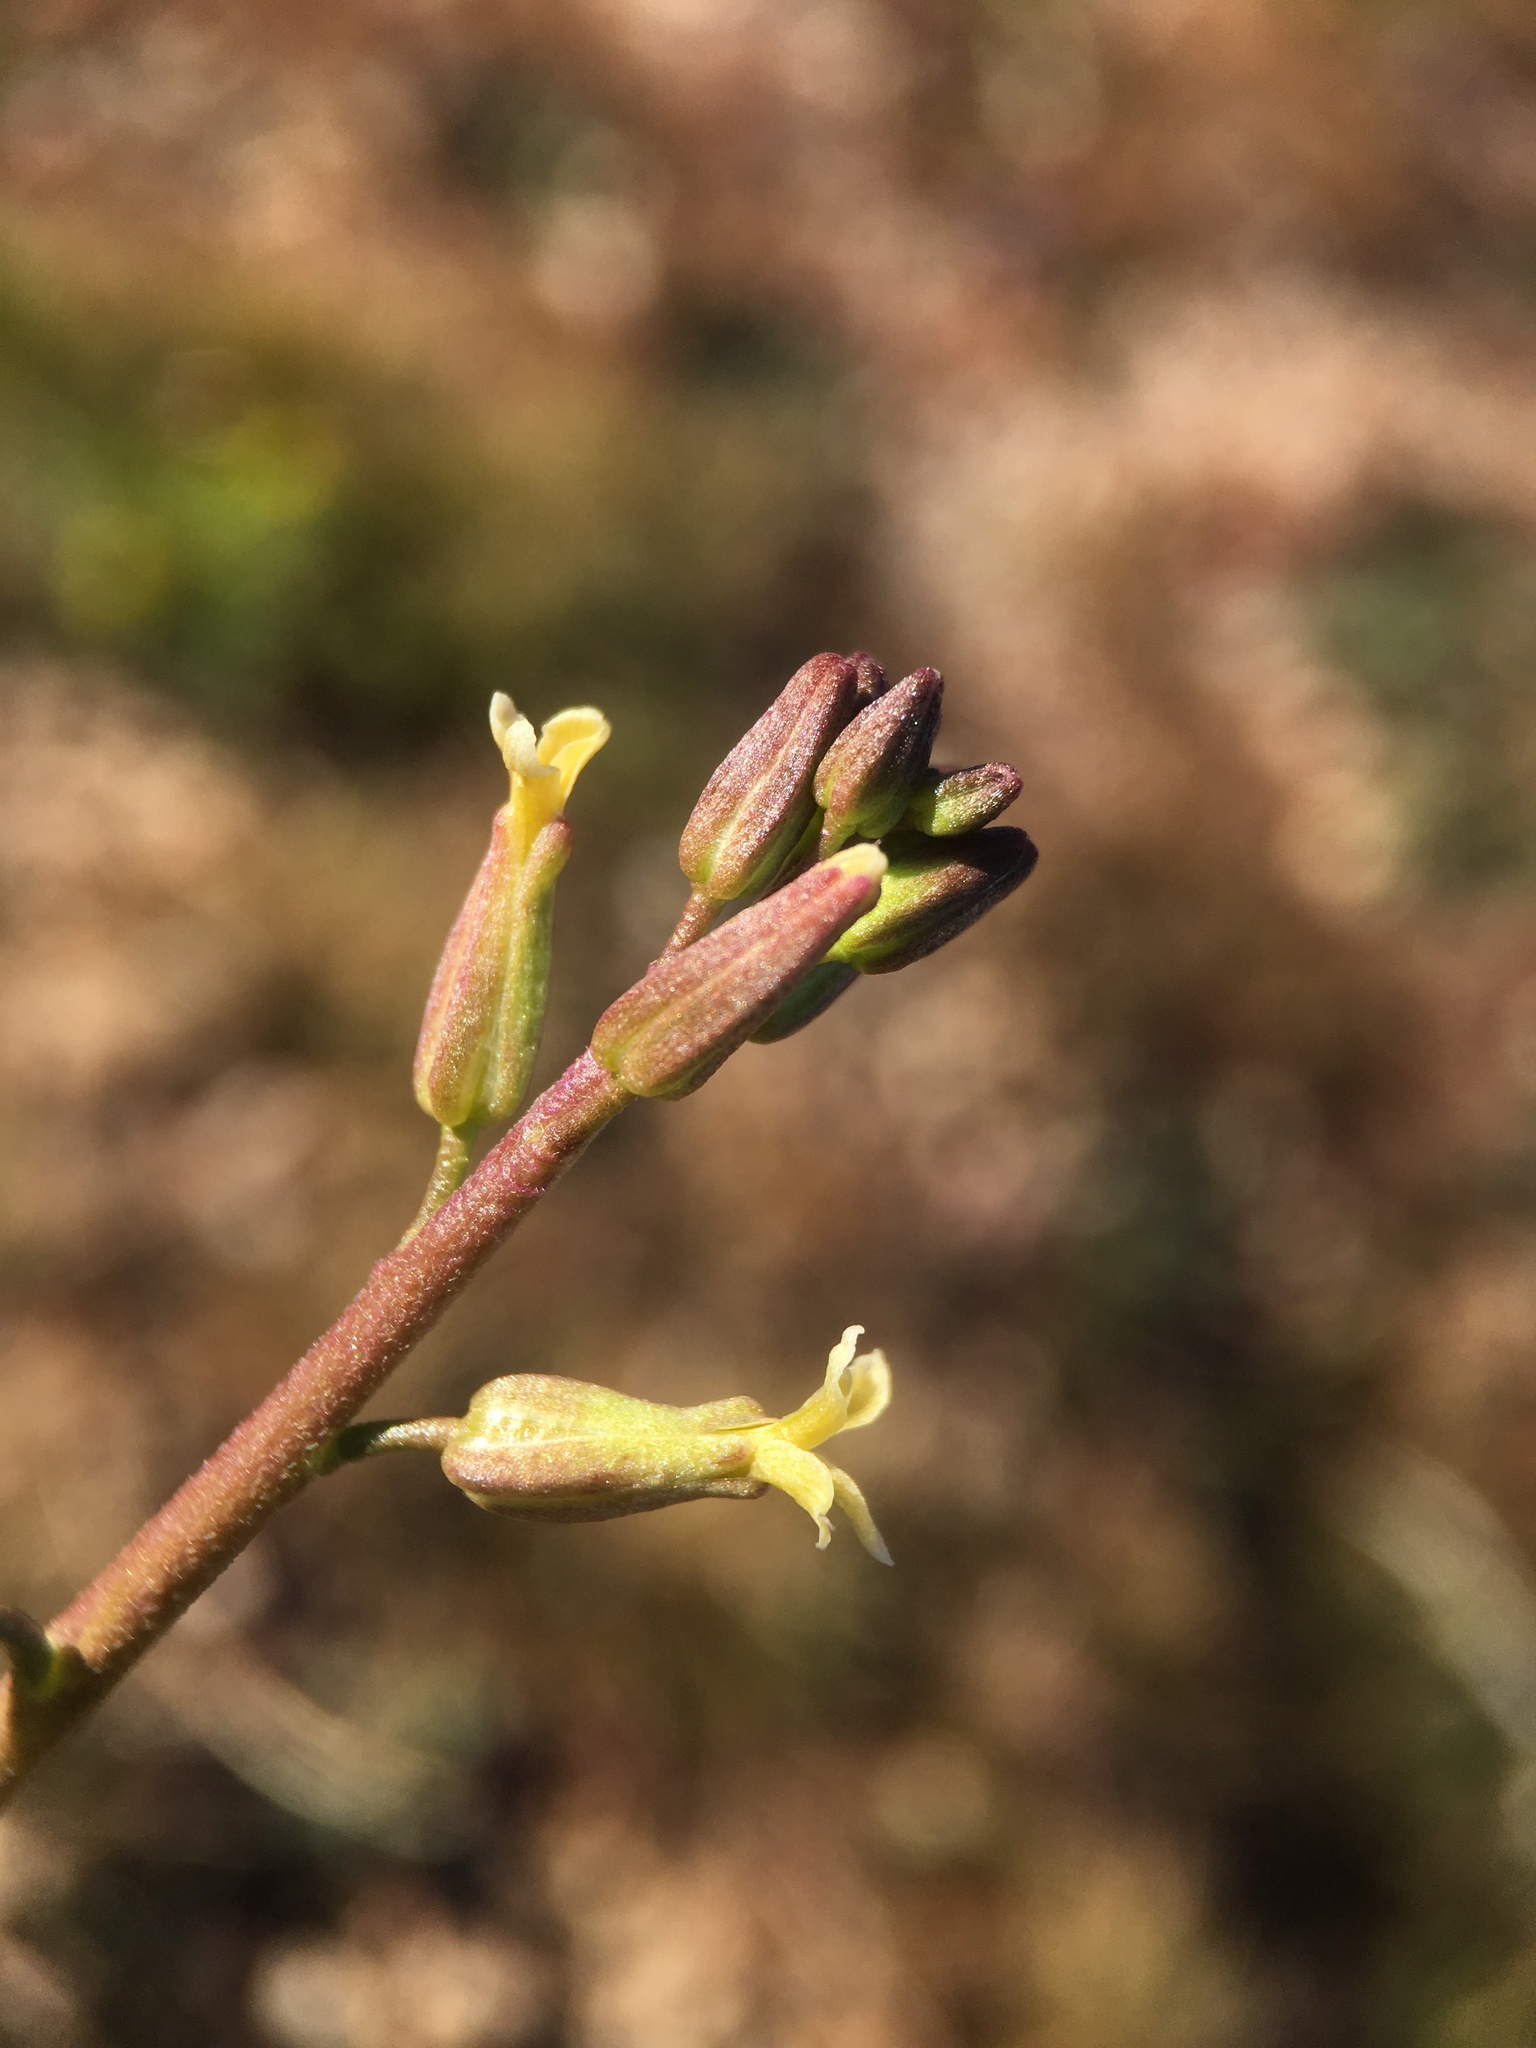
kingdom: Plantae
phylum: Tracheophyta
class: Magnoliopsida
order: Brassicales
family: Brassicaceae
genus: Streptanthus
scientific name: Streptanthus cooperi
